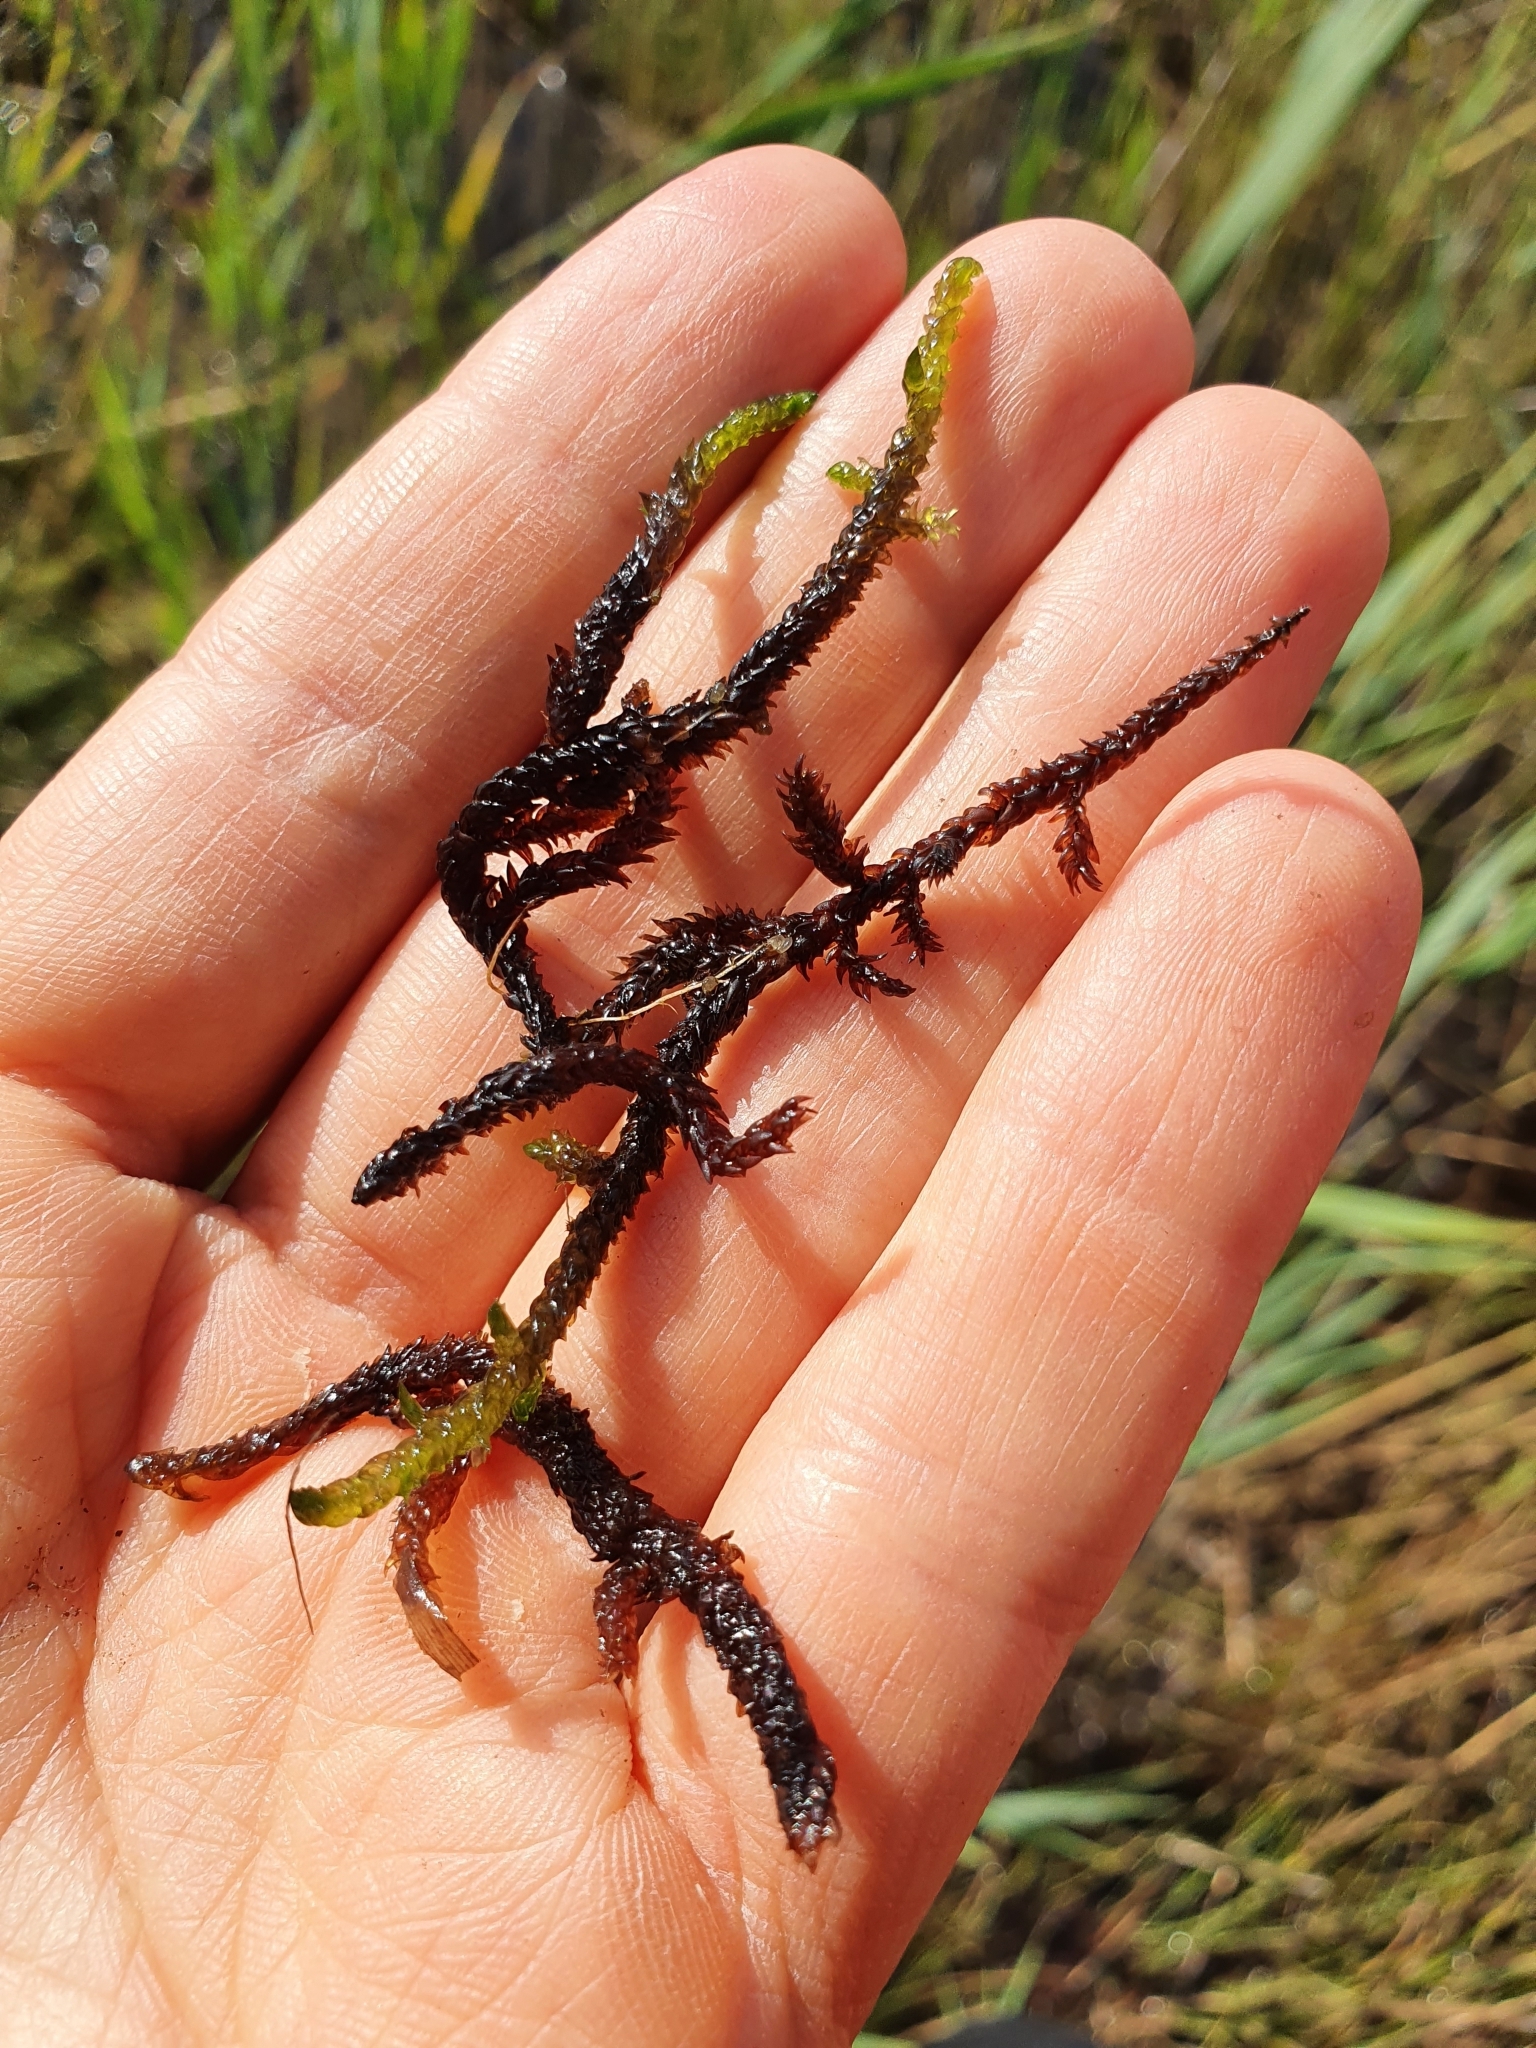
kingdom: Plantae
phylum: Bryophyta
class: Bryopsida
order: Hypnales
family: Scorpidiaceae
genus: Scorpidium
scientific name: Scorpidium scorpioides
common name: Hooked scorpion moss
